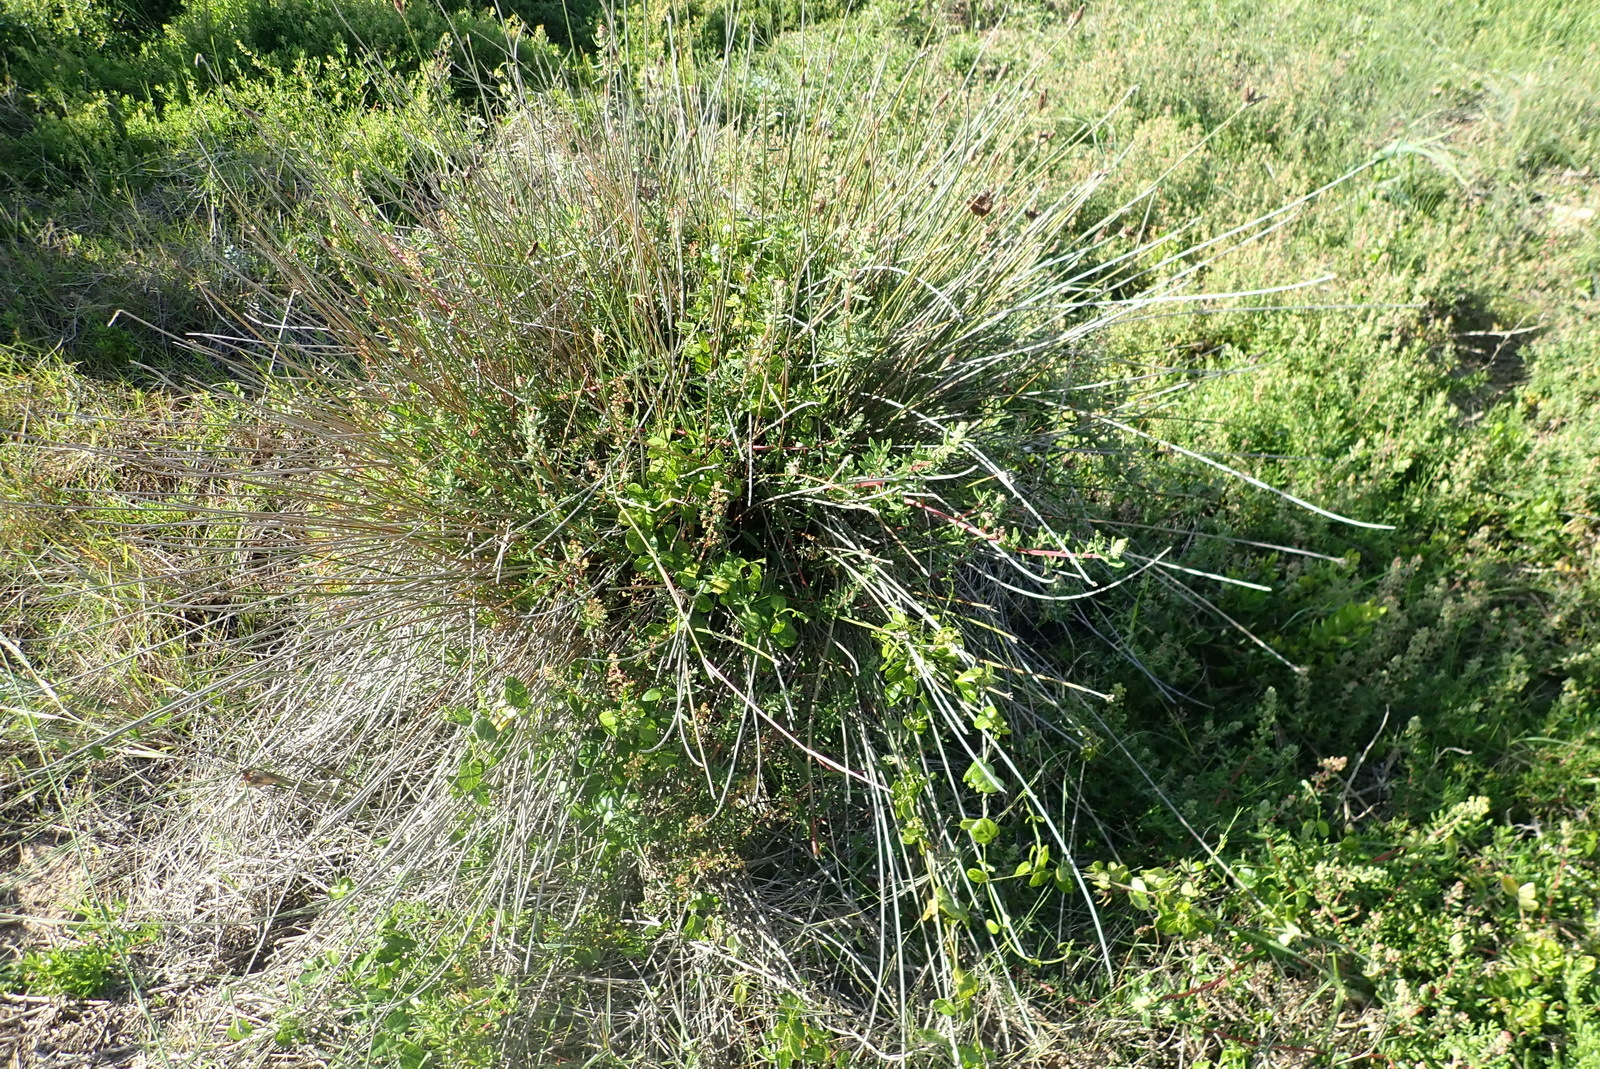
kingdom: Plantae
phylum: Tracheophyta
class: Liliopsida
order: Poales
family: Cyperaceae
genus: Hellmuthia
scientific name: Hellmuthia membranacea
